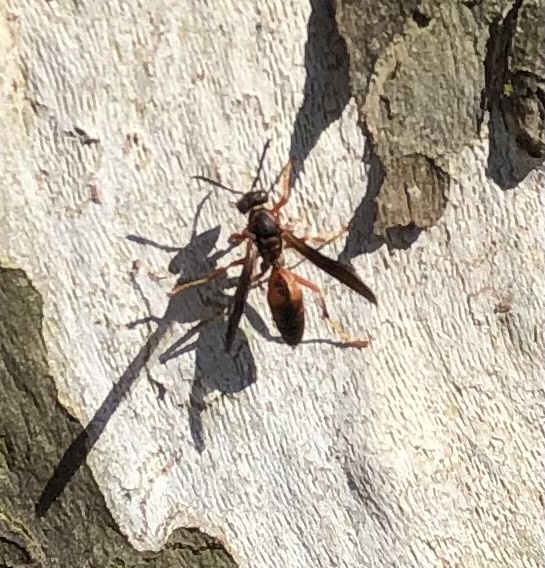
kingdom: Animalia
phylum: Arthropoda
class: Insecta
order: Hymenoptera
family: Vespidae
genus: Fuscopolistes
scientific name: Fuscopolistes
